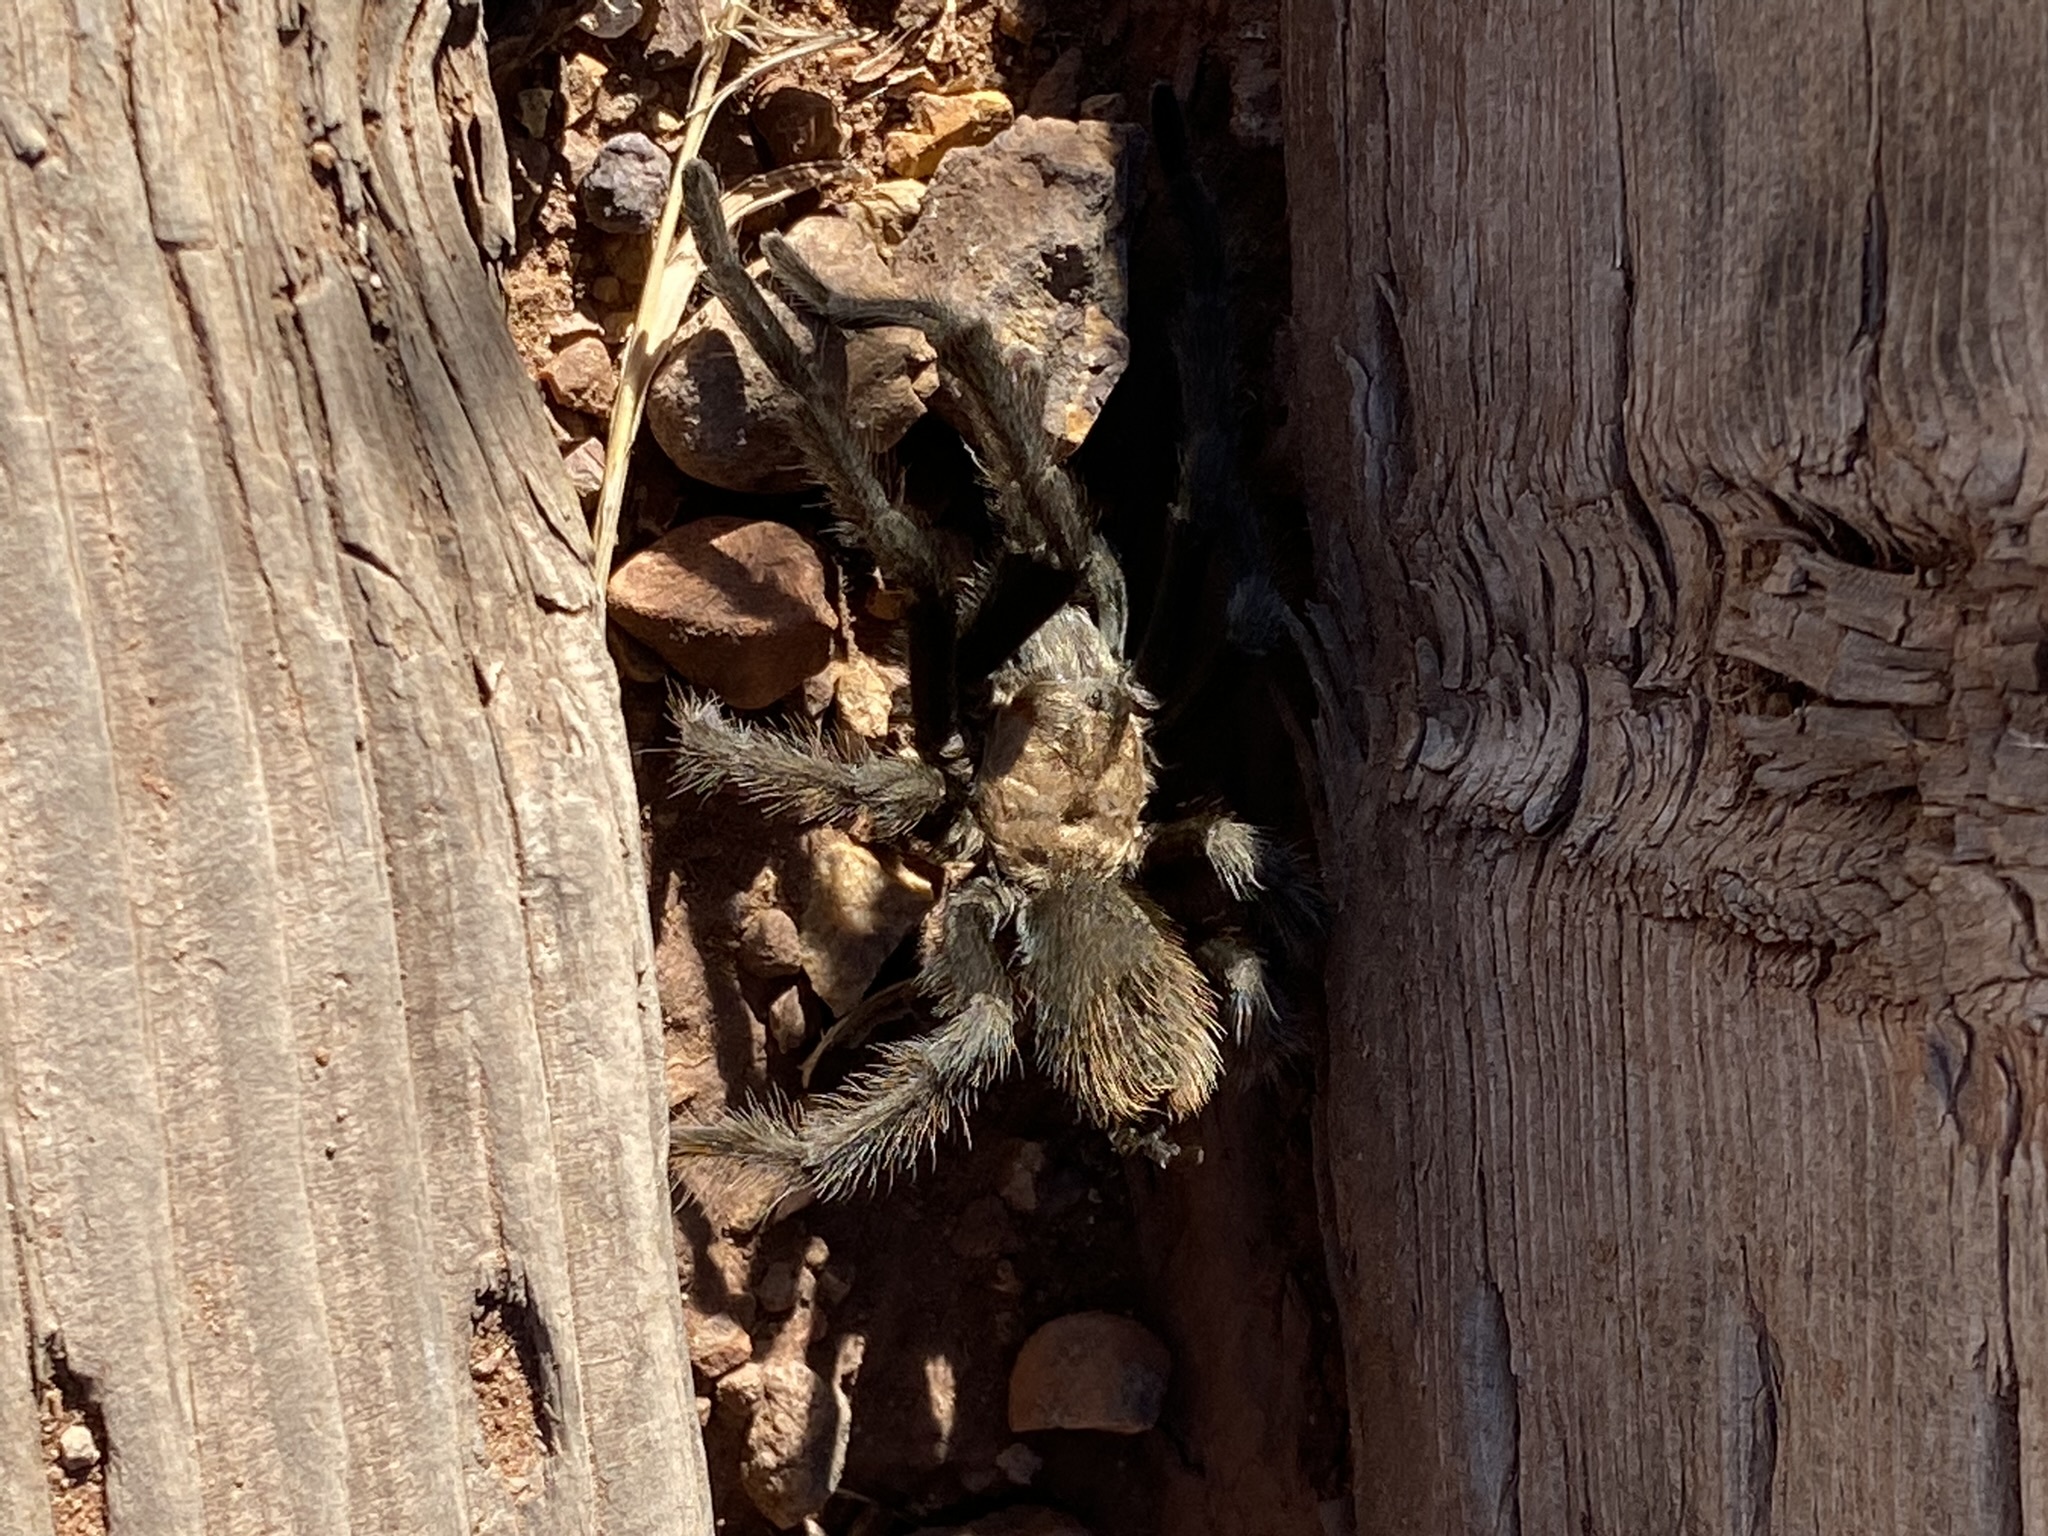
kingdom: Animalia
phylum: Arthropoda
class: Arachnida
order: Araneae
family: Theraphosidae
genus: Aphonopelma
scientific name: Aphonopelma iodius
